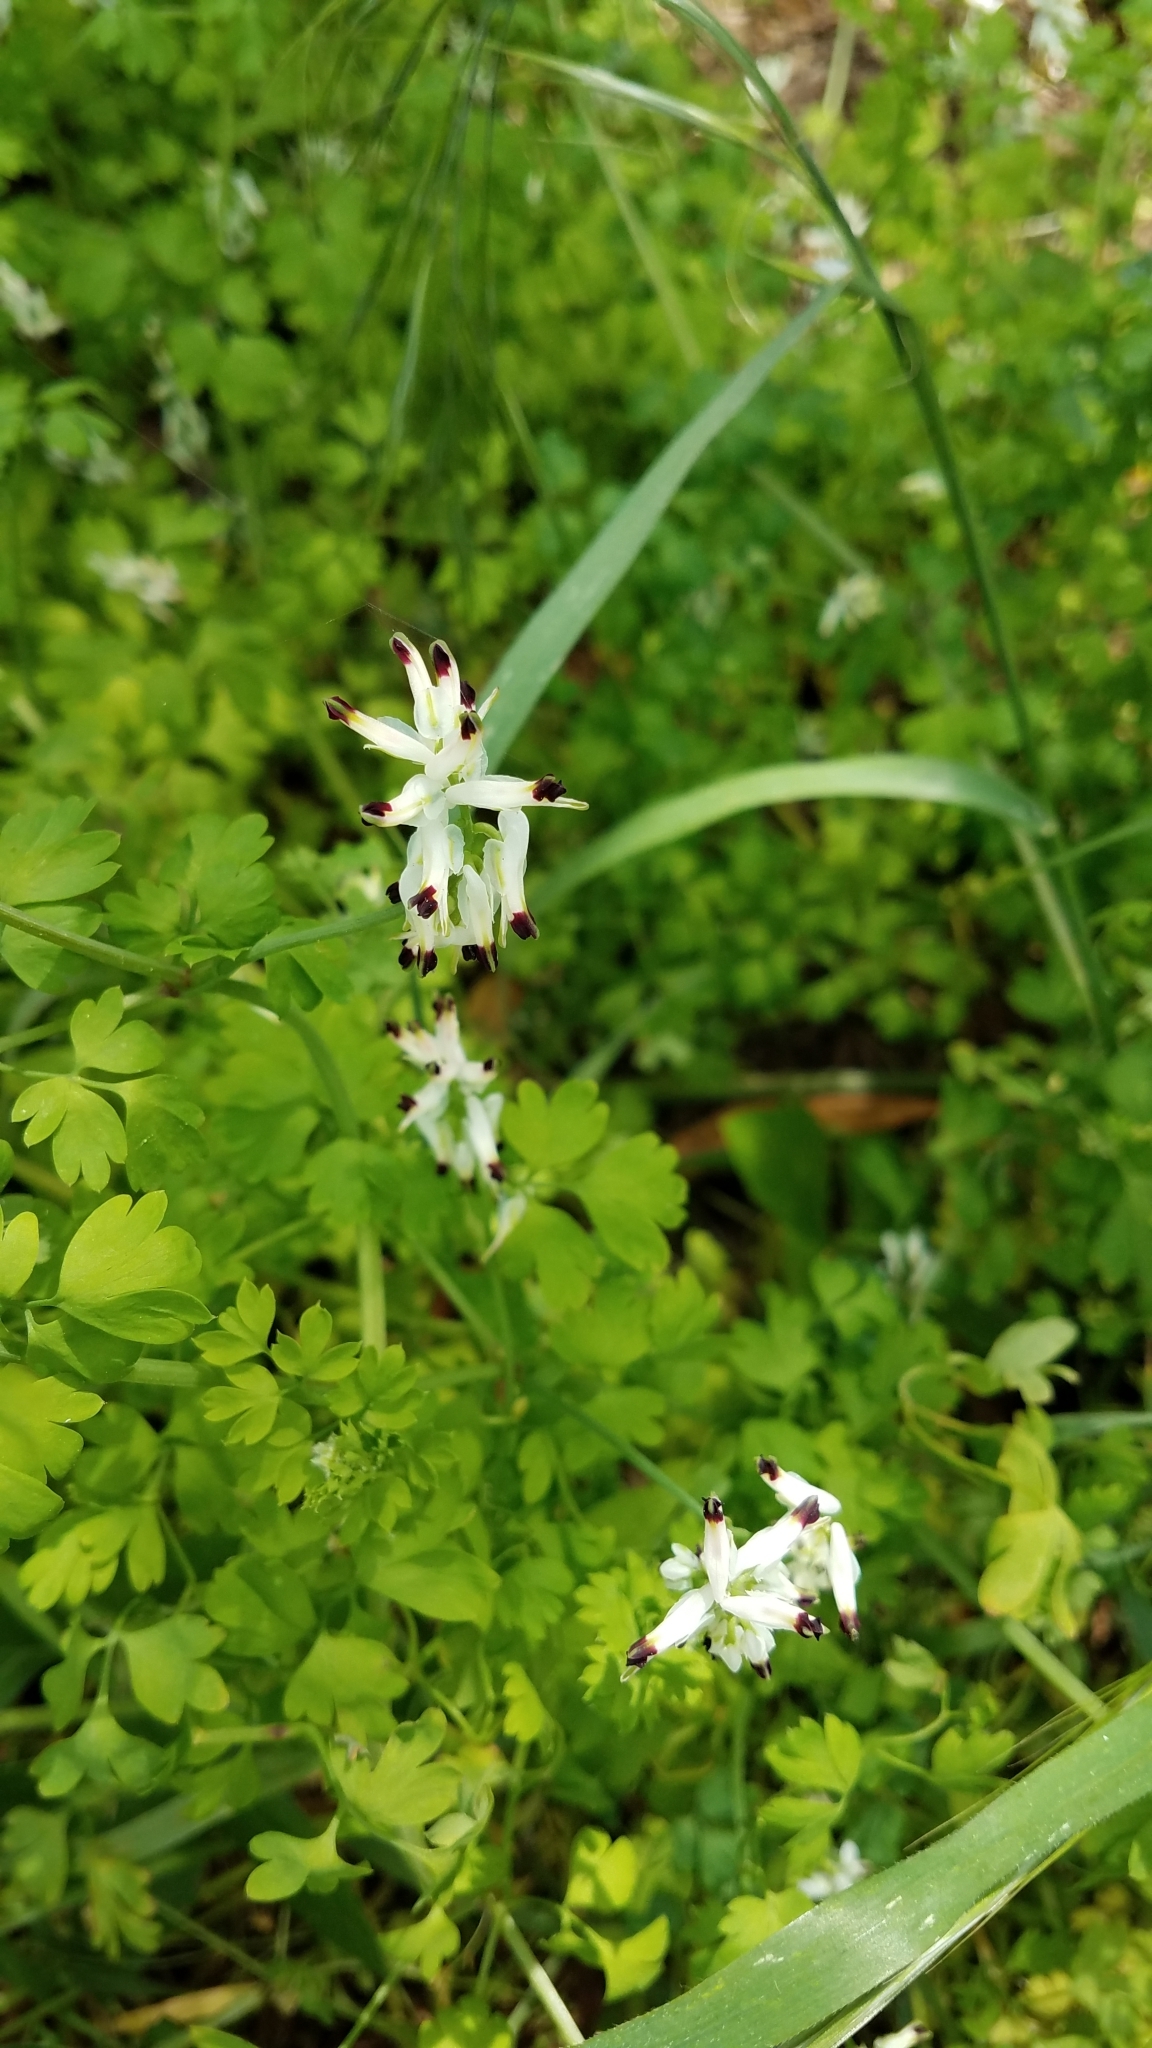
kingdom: Plantae
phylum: Tracheophyta
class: Magnoliopsida
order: Ranunculales
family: Papaveraceae
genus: Fumaria
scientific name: Fumaria capreolata
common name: White ramping-fumitory
